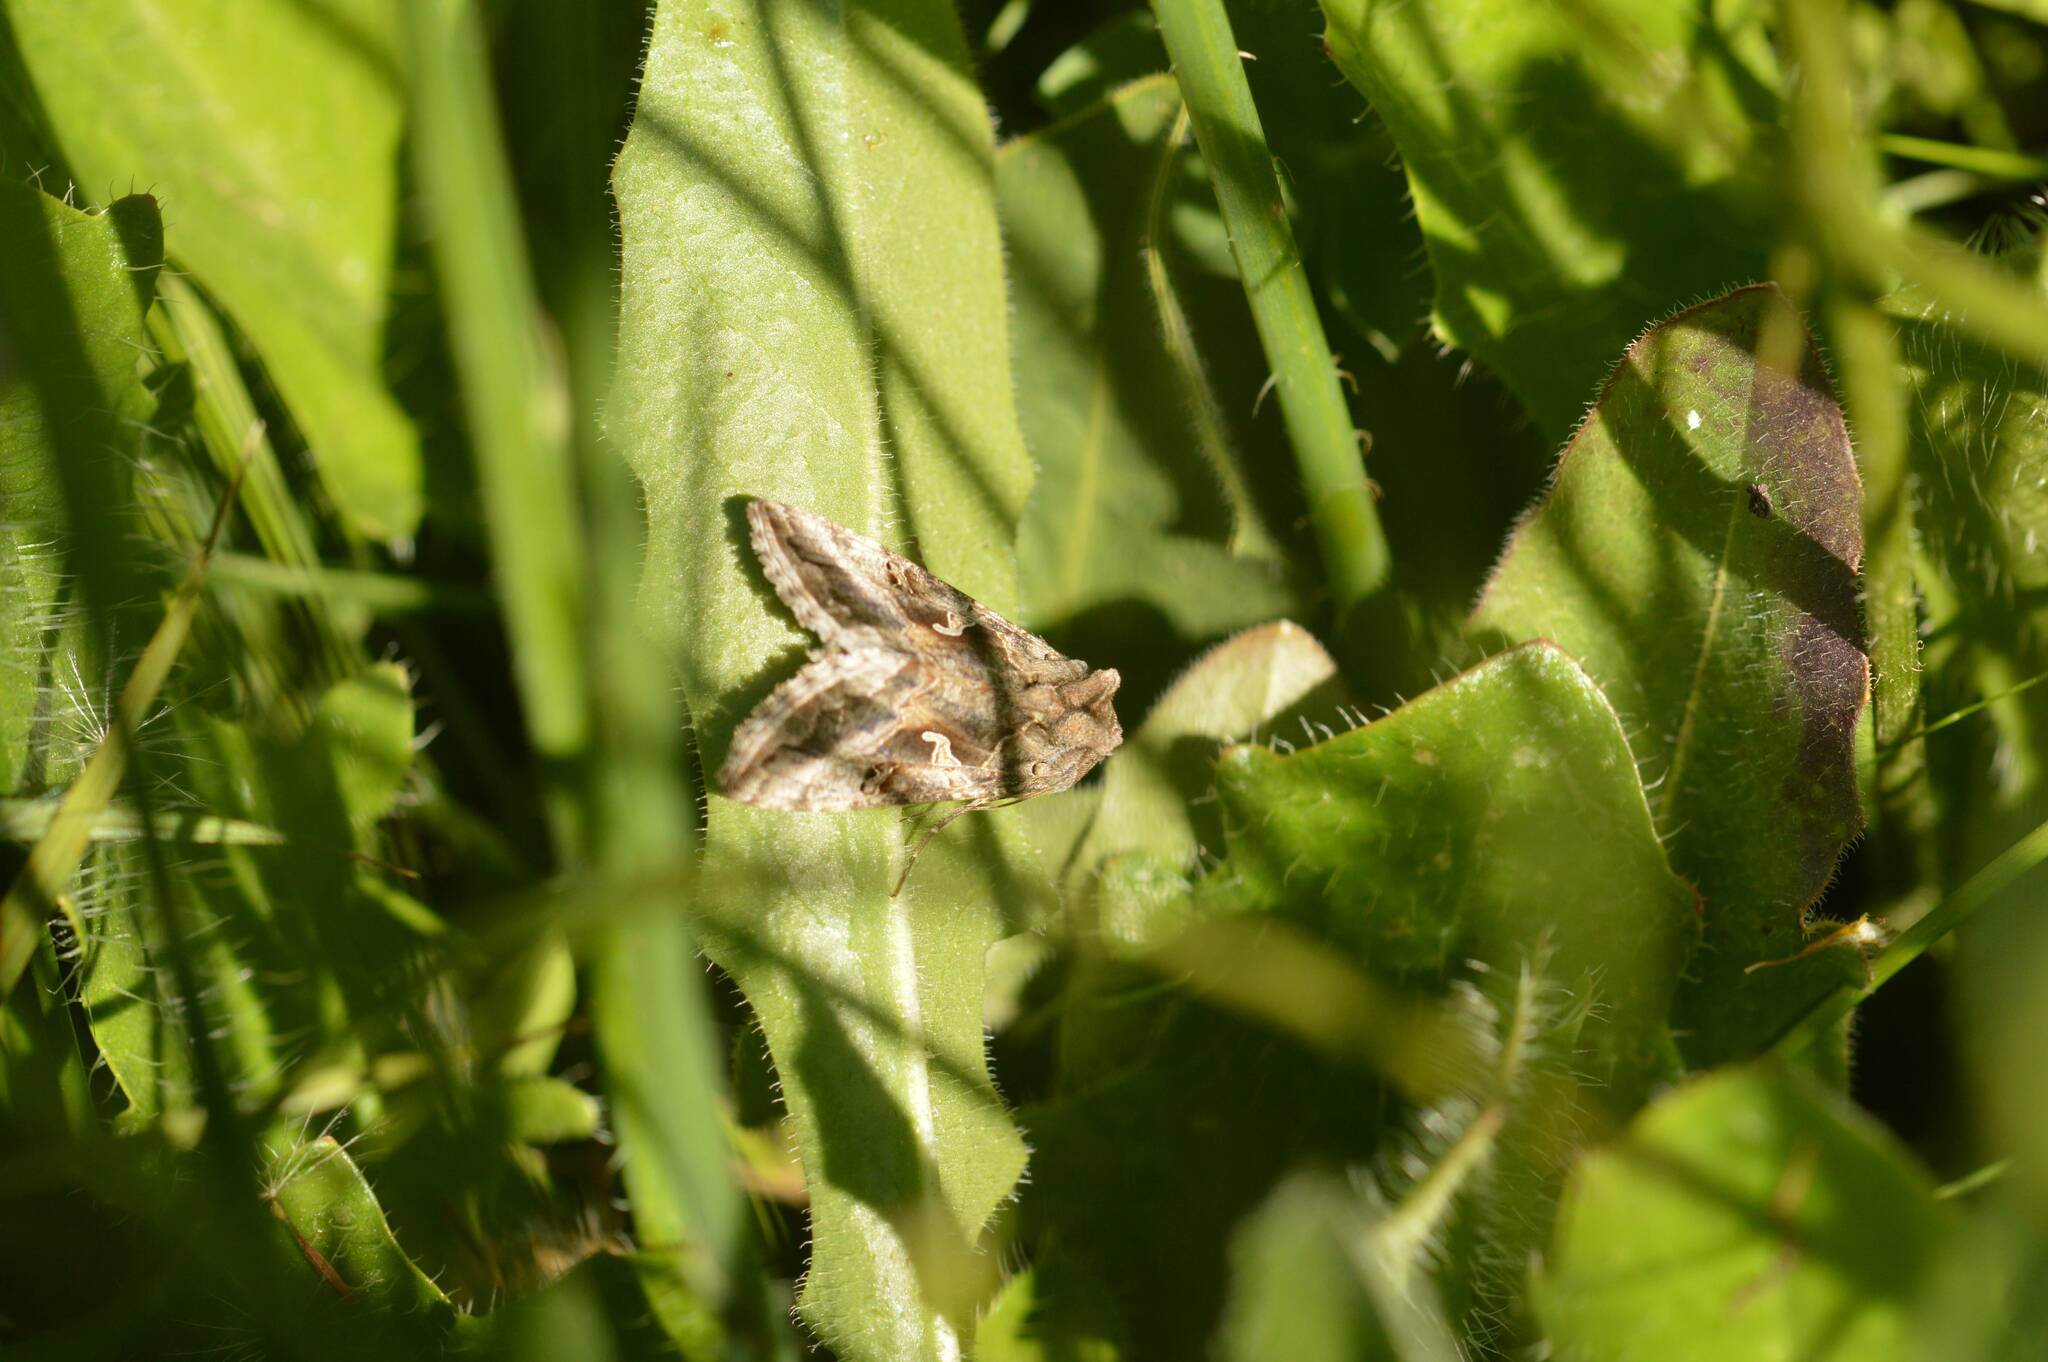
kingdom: Animalia
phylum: Arthropoda
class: Insecta
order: Lepidoptera
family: Noctuidae
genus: Autographa
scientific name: Autographa gamma
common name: Silver y
